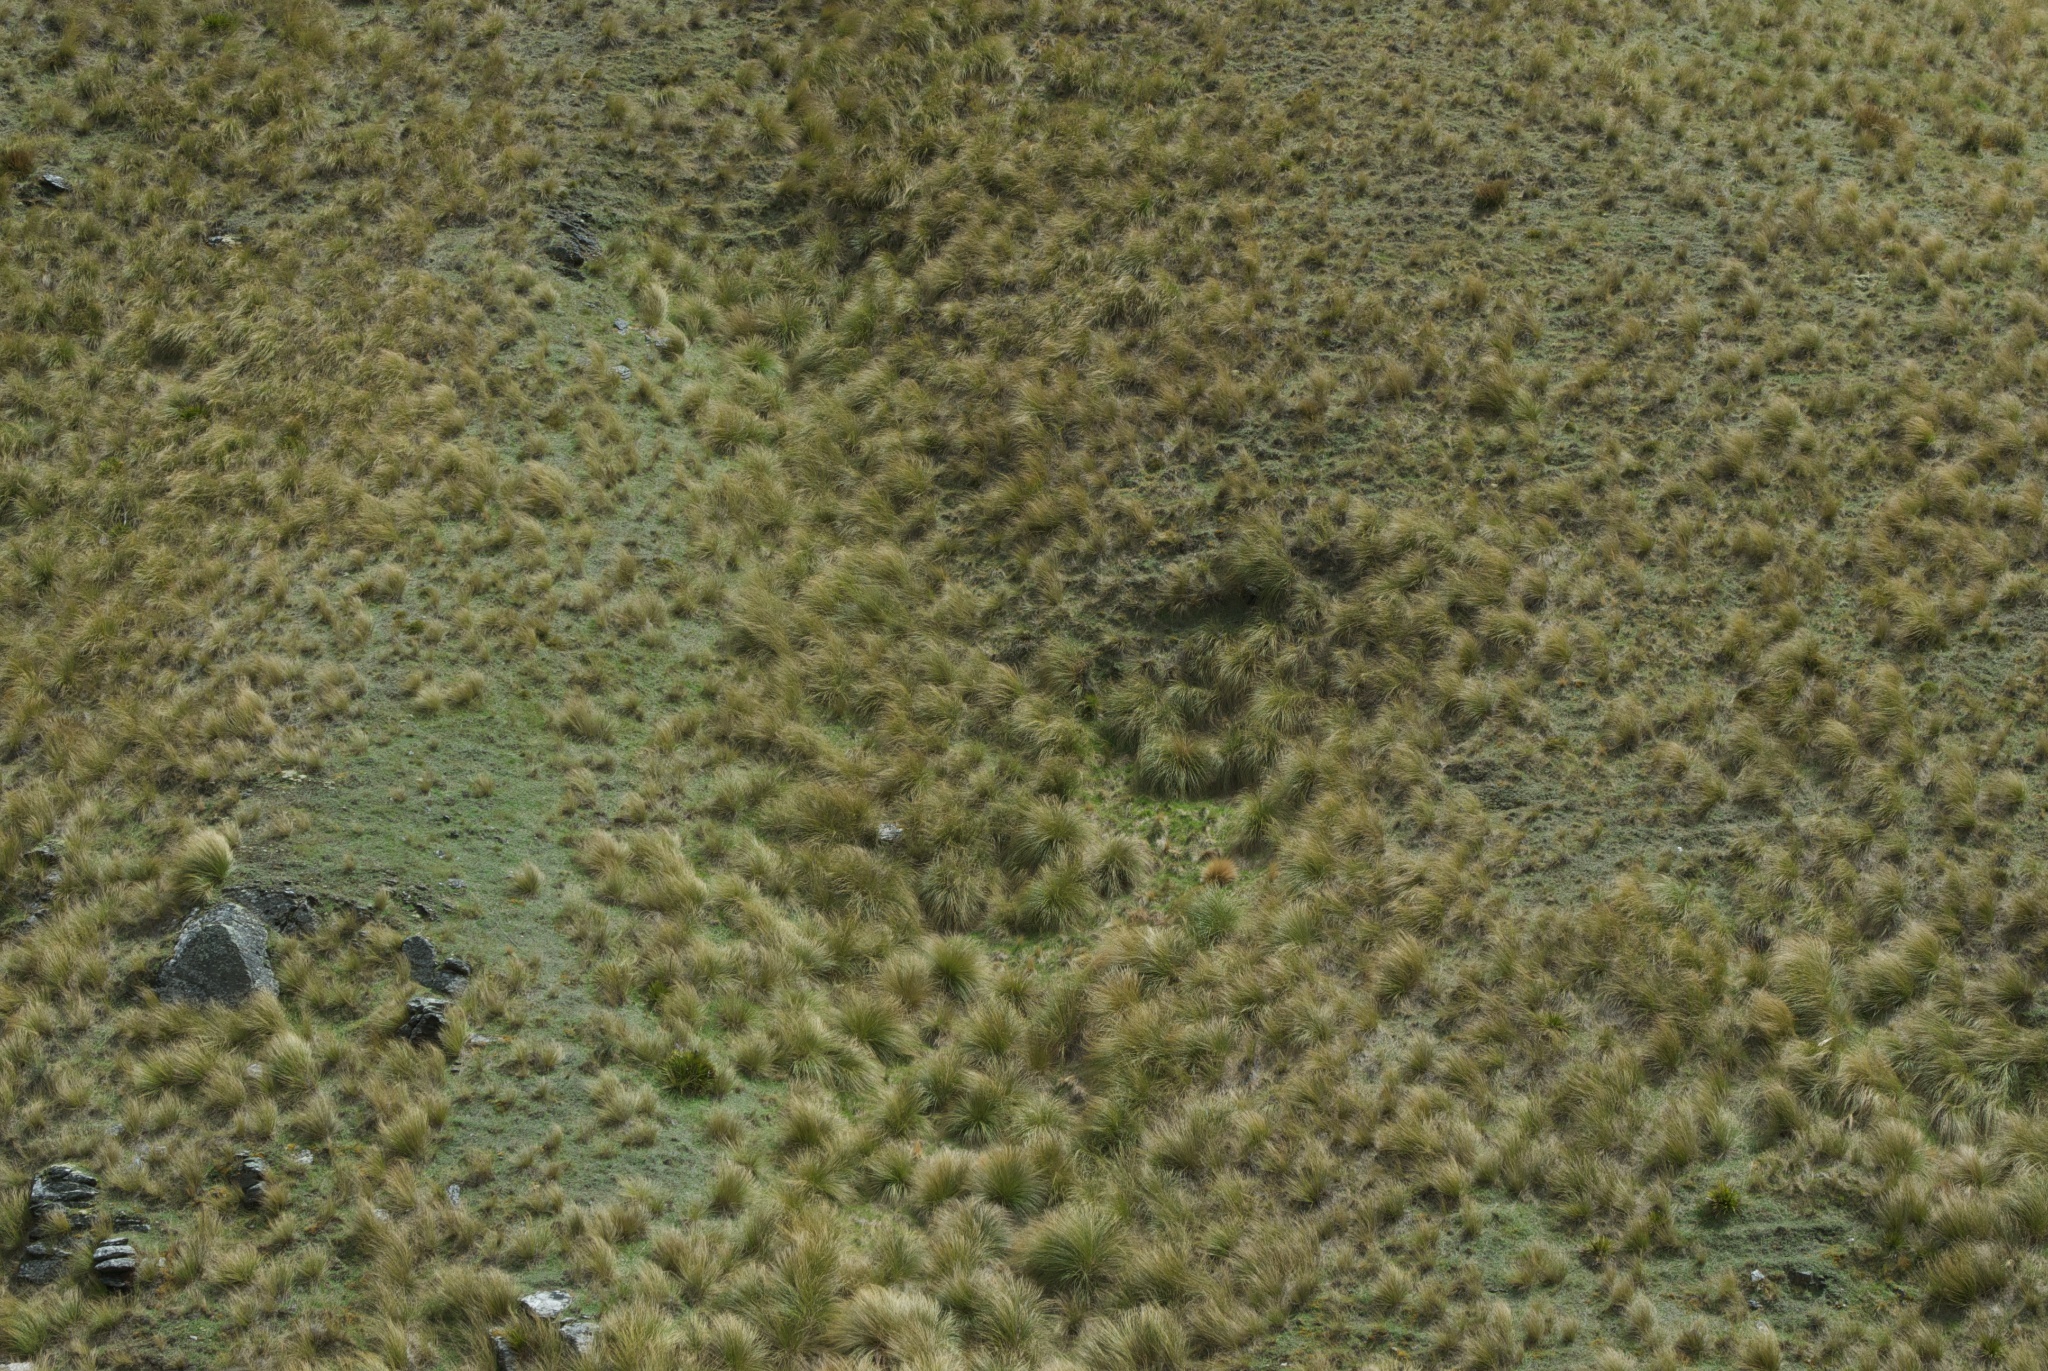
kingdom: Plantae
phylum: Tracheophyta
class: Magnoliopsida
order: Asterales
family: Asteraceae
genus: Pilosella
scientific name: Pilosella officinarum
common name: Mouse-ear hawkweed
